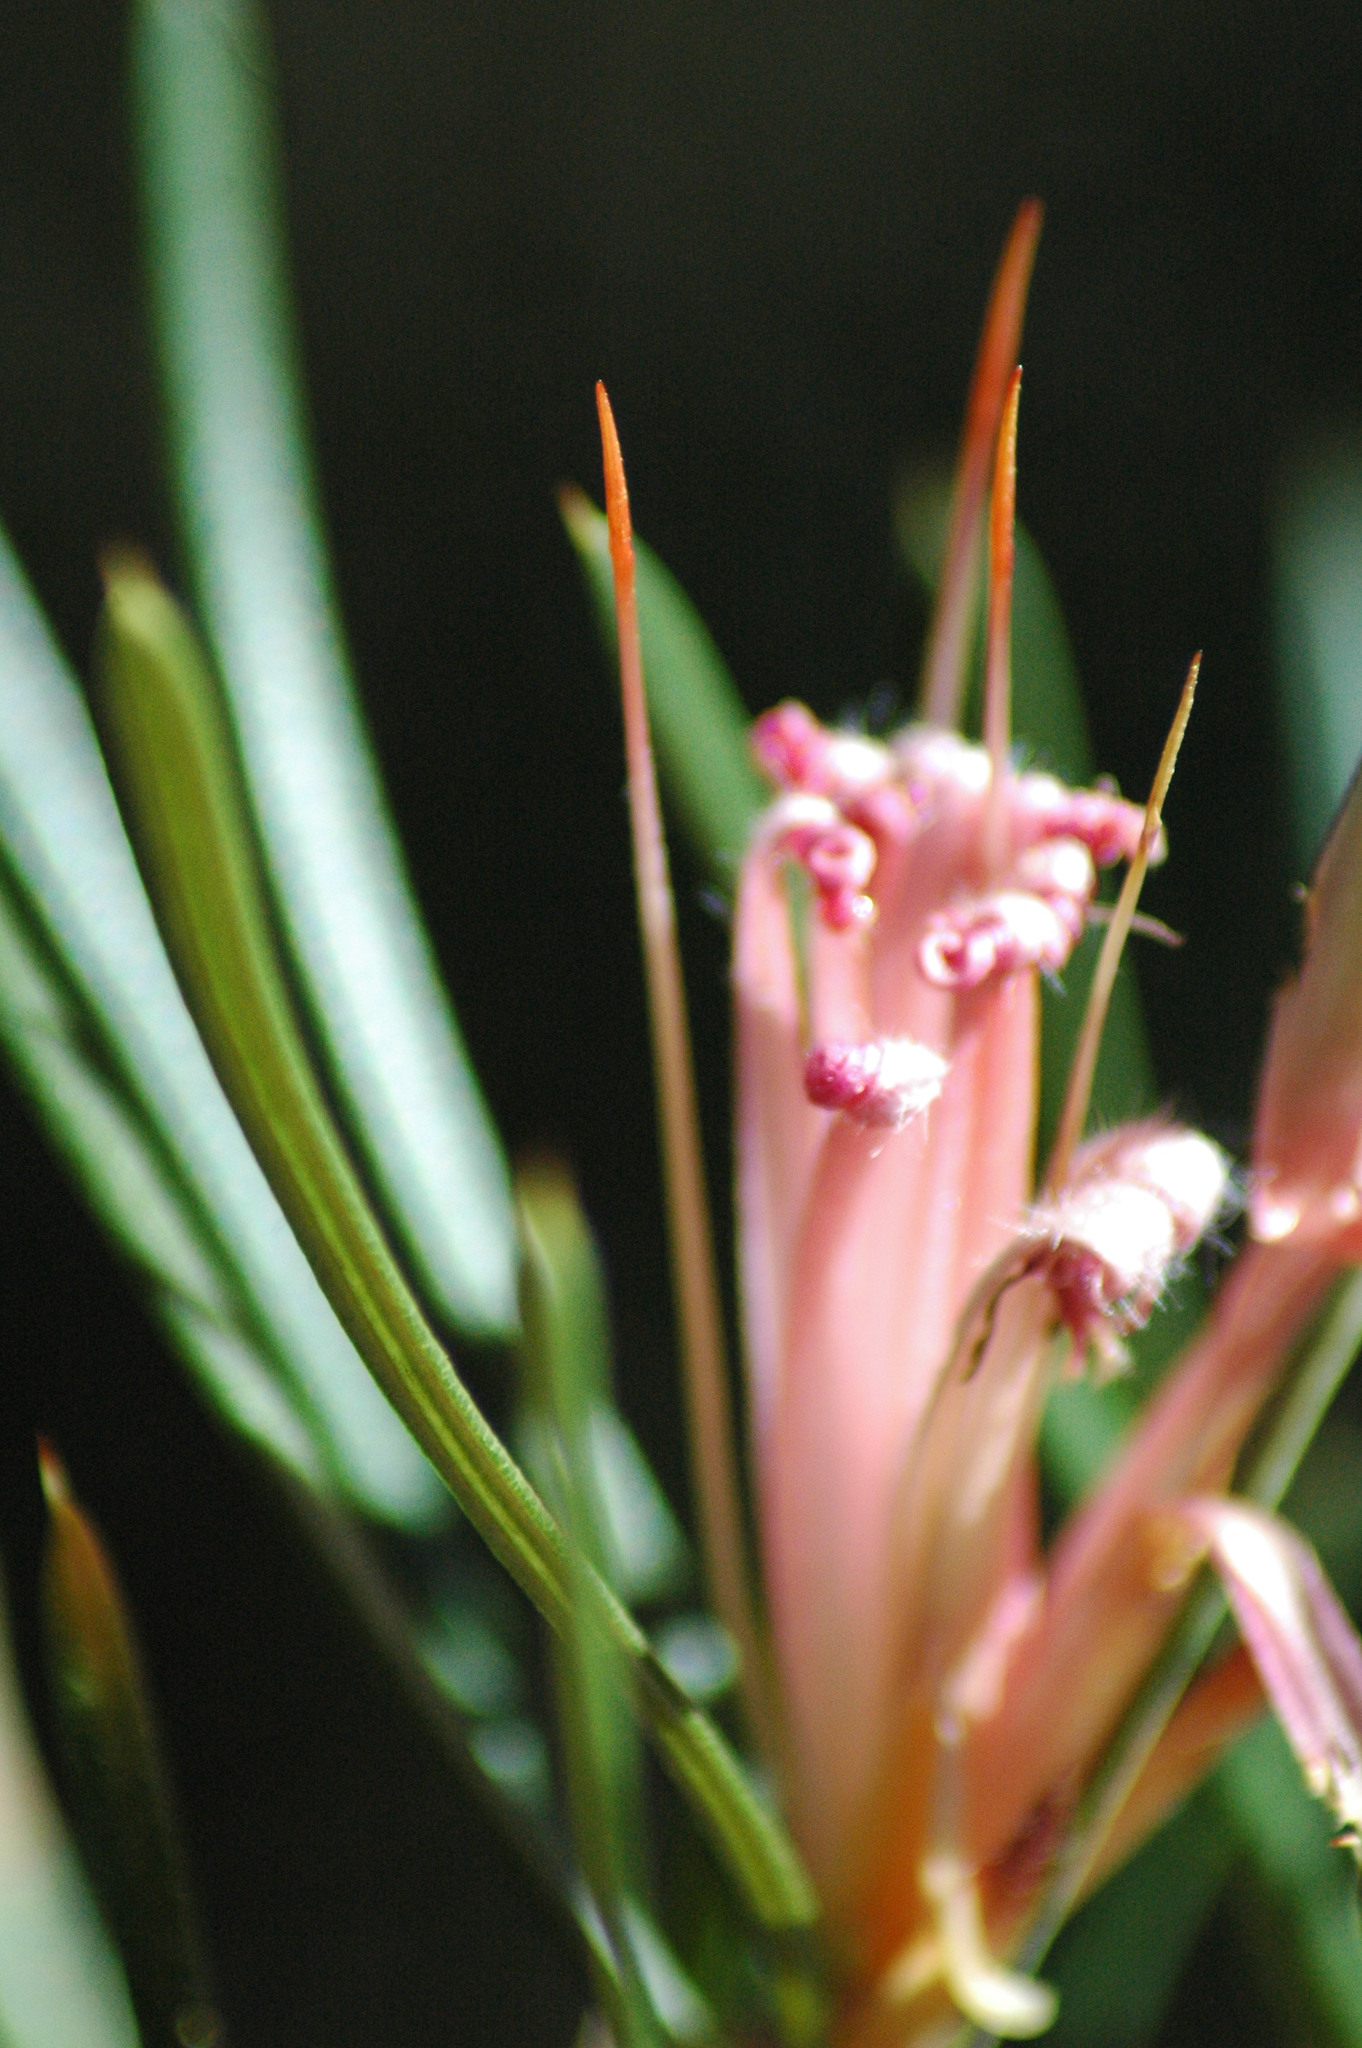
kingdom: Plantae
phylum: Tracheophyta
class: Magnoliopsida
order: Proteales
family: Proteaceae
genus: Lambertia
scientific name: Lambertia formosa
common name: Mountain-devil
